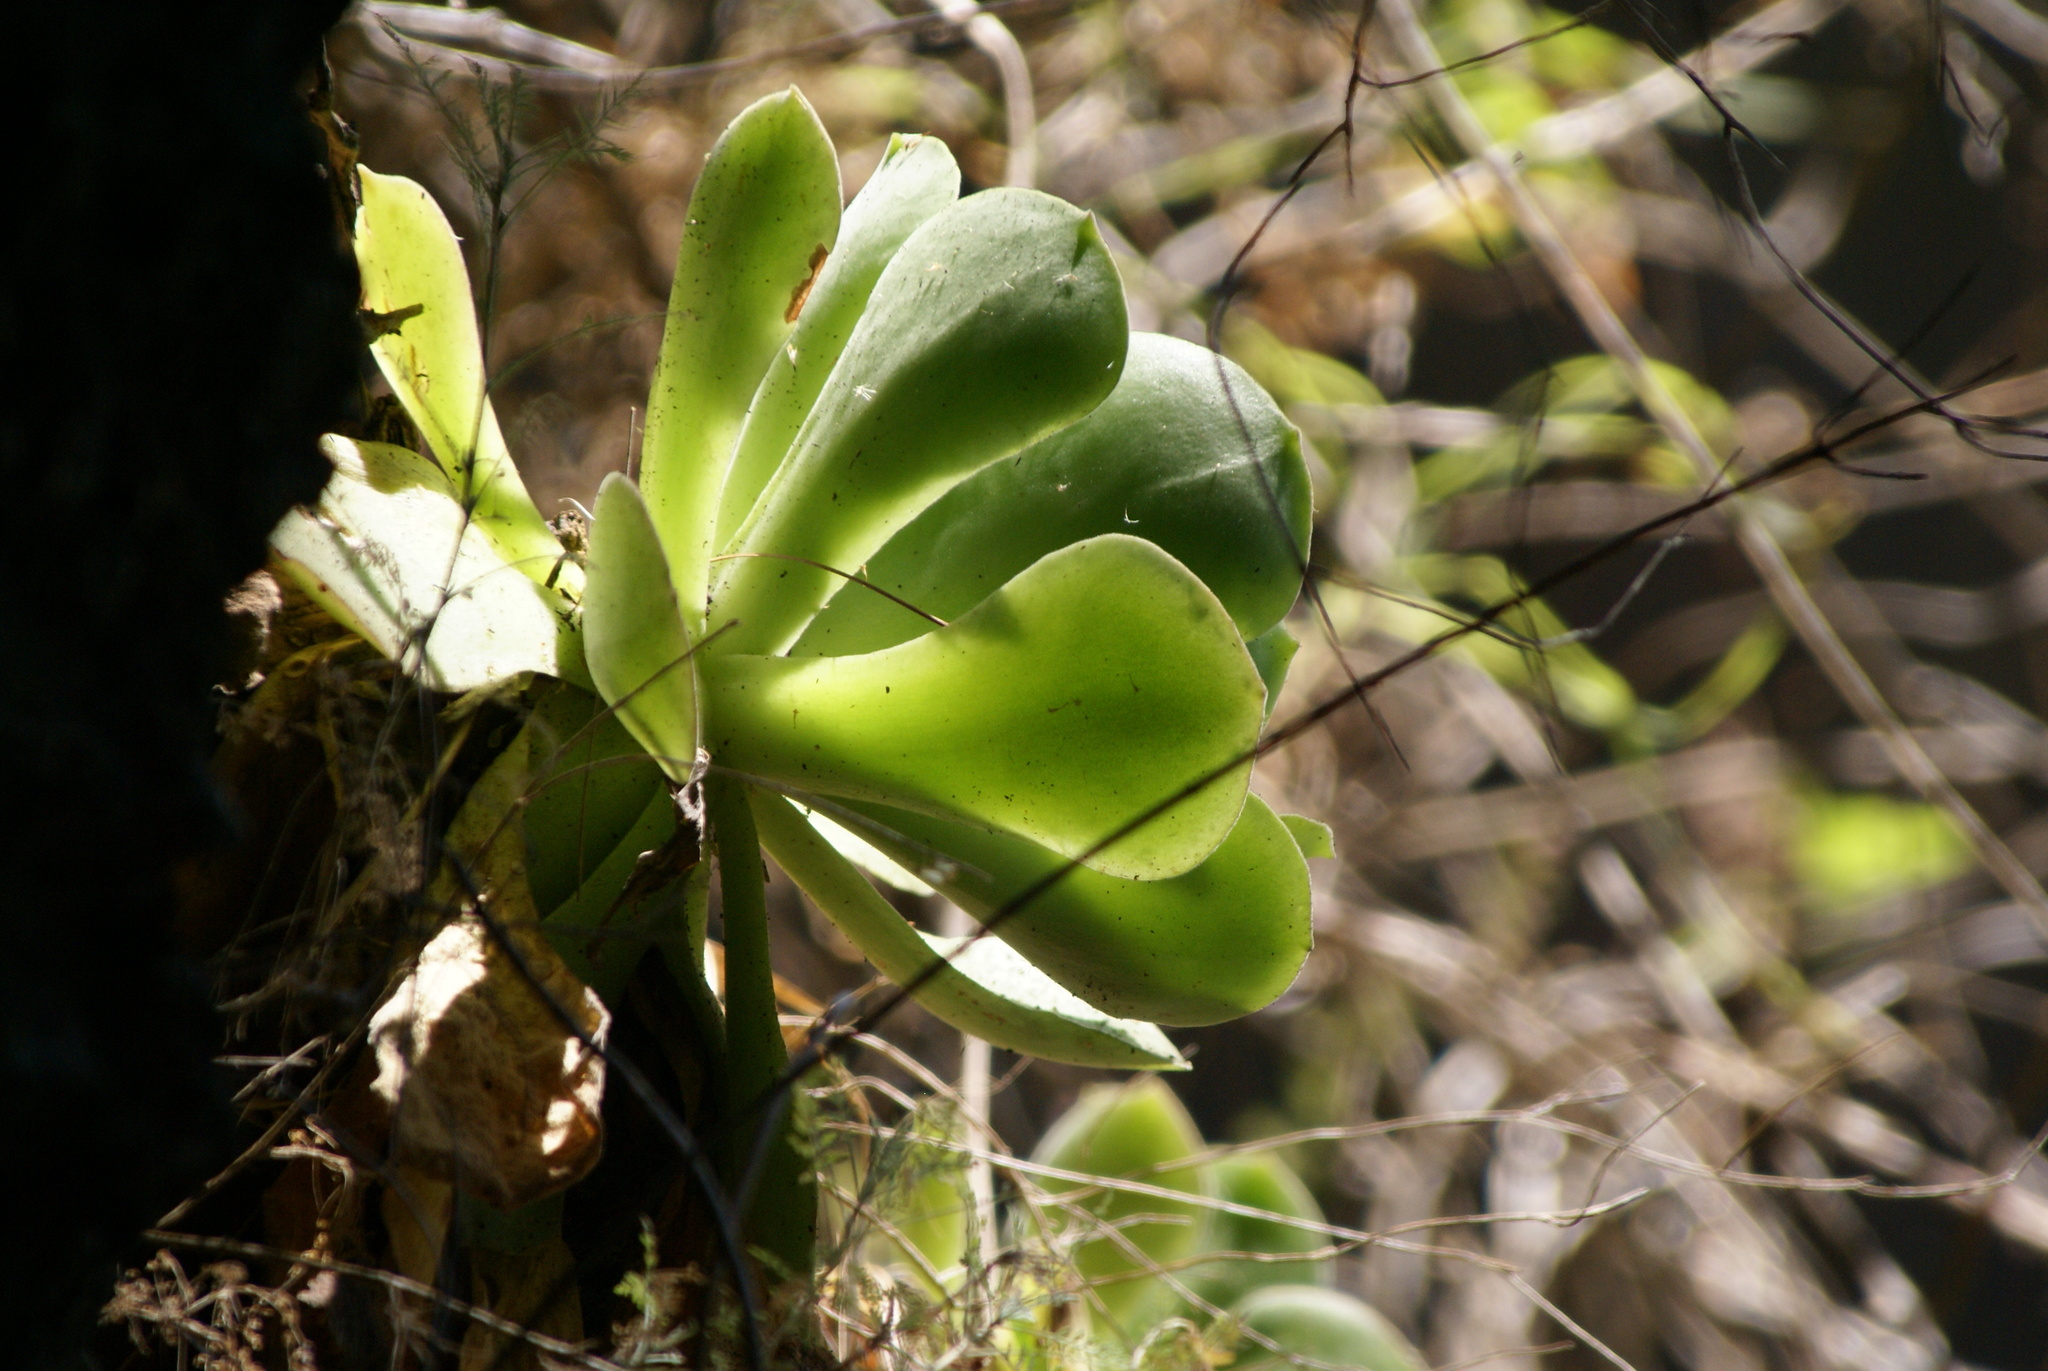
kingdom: Plantae
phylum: Tracheophyta
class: Magnoliopsida
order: Saxifragales
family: Crassulaceae
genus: Aeonium
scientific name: Aeonium canariense
